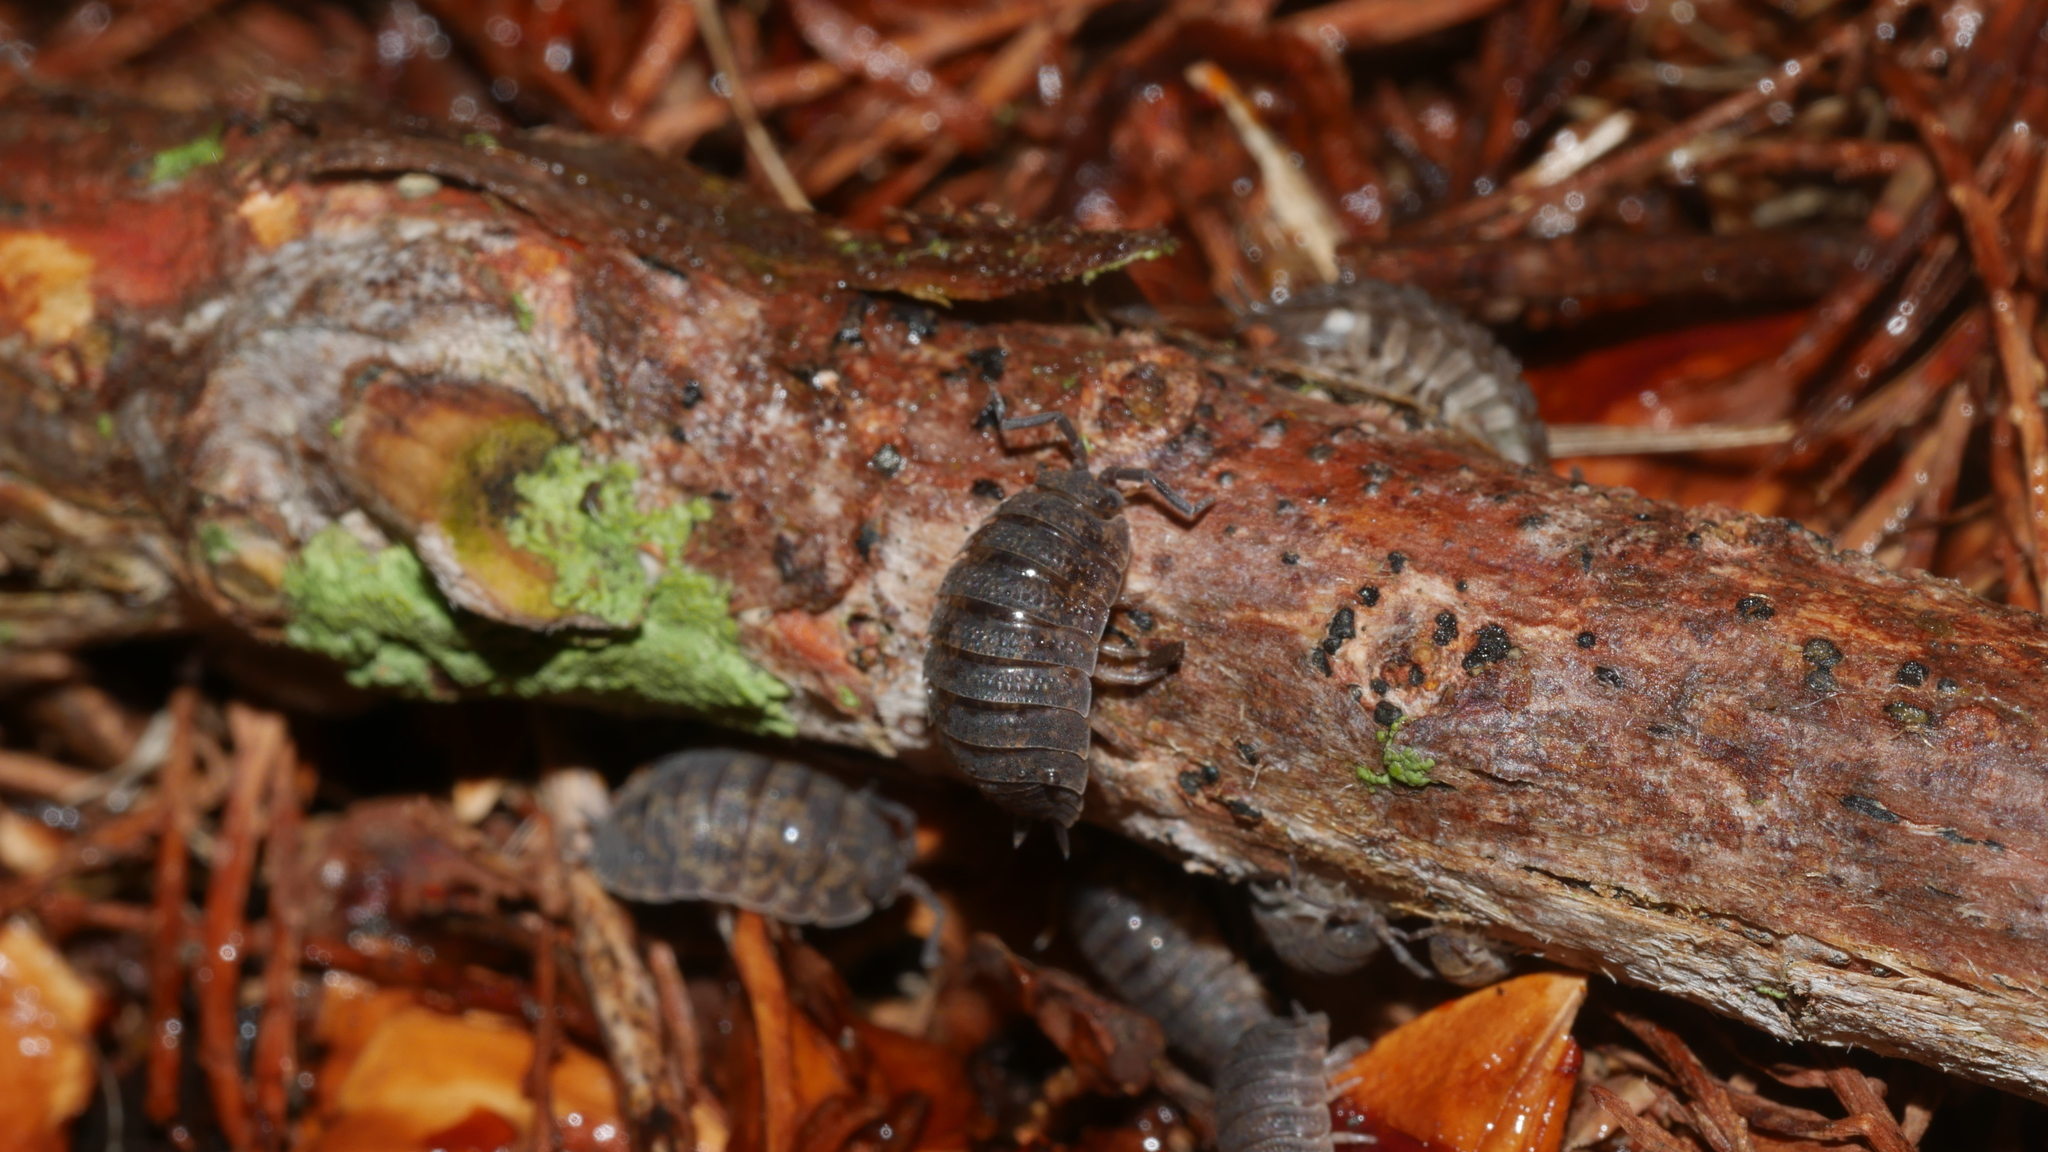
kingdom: Animalia
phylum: Arthropoda
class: Malacostraca
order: Isopoda
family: Porcellionidae
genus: Porcellio
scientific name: Porcellio scaber
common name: Common rough woodlouse
